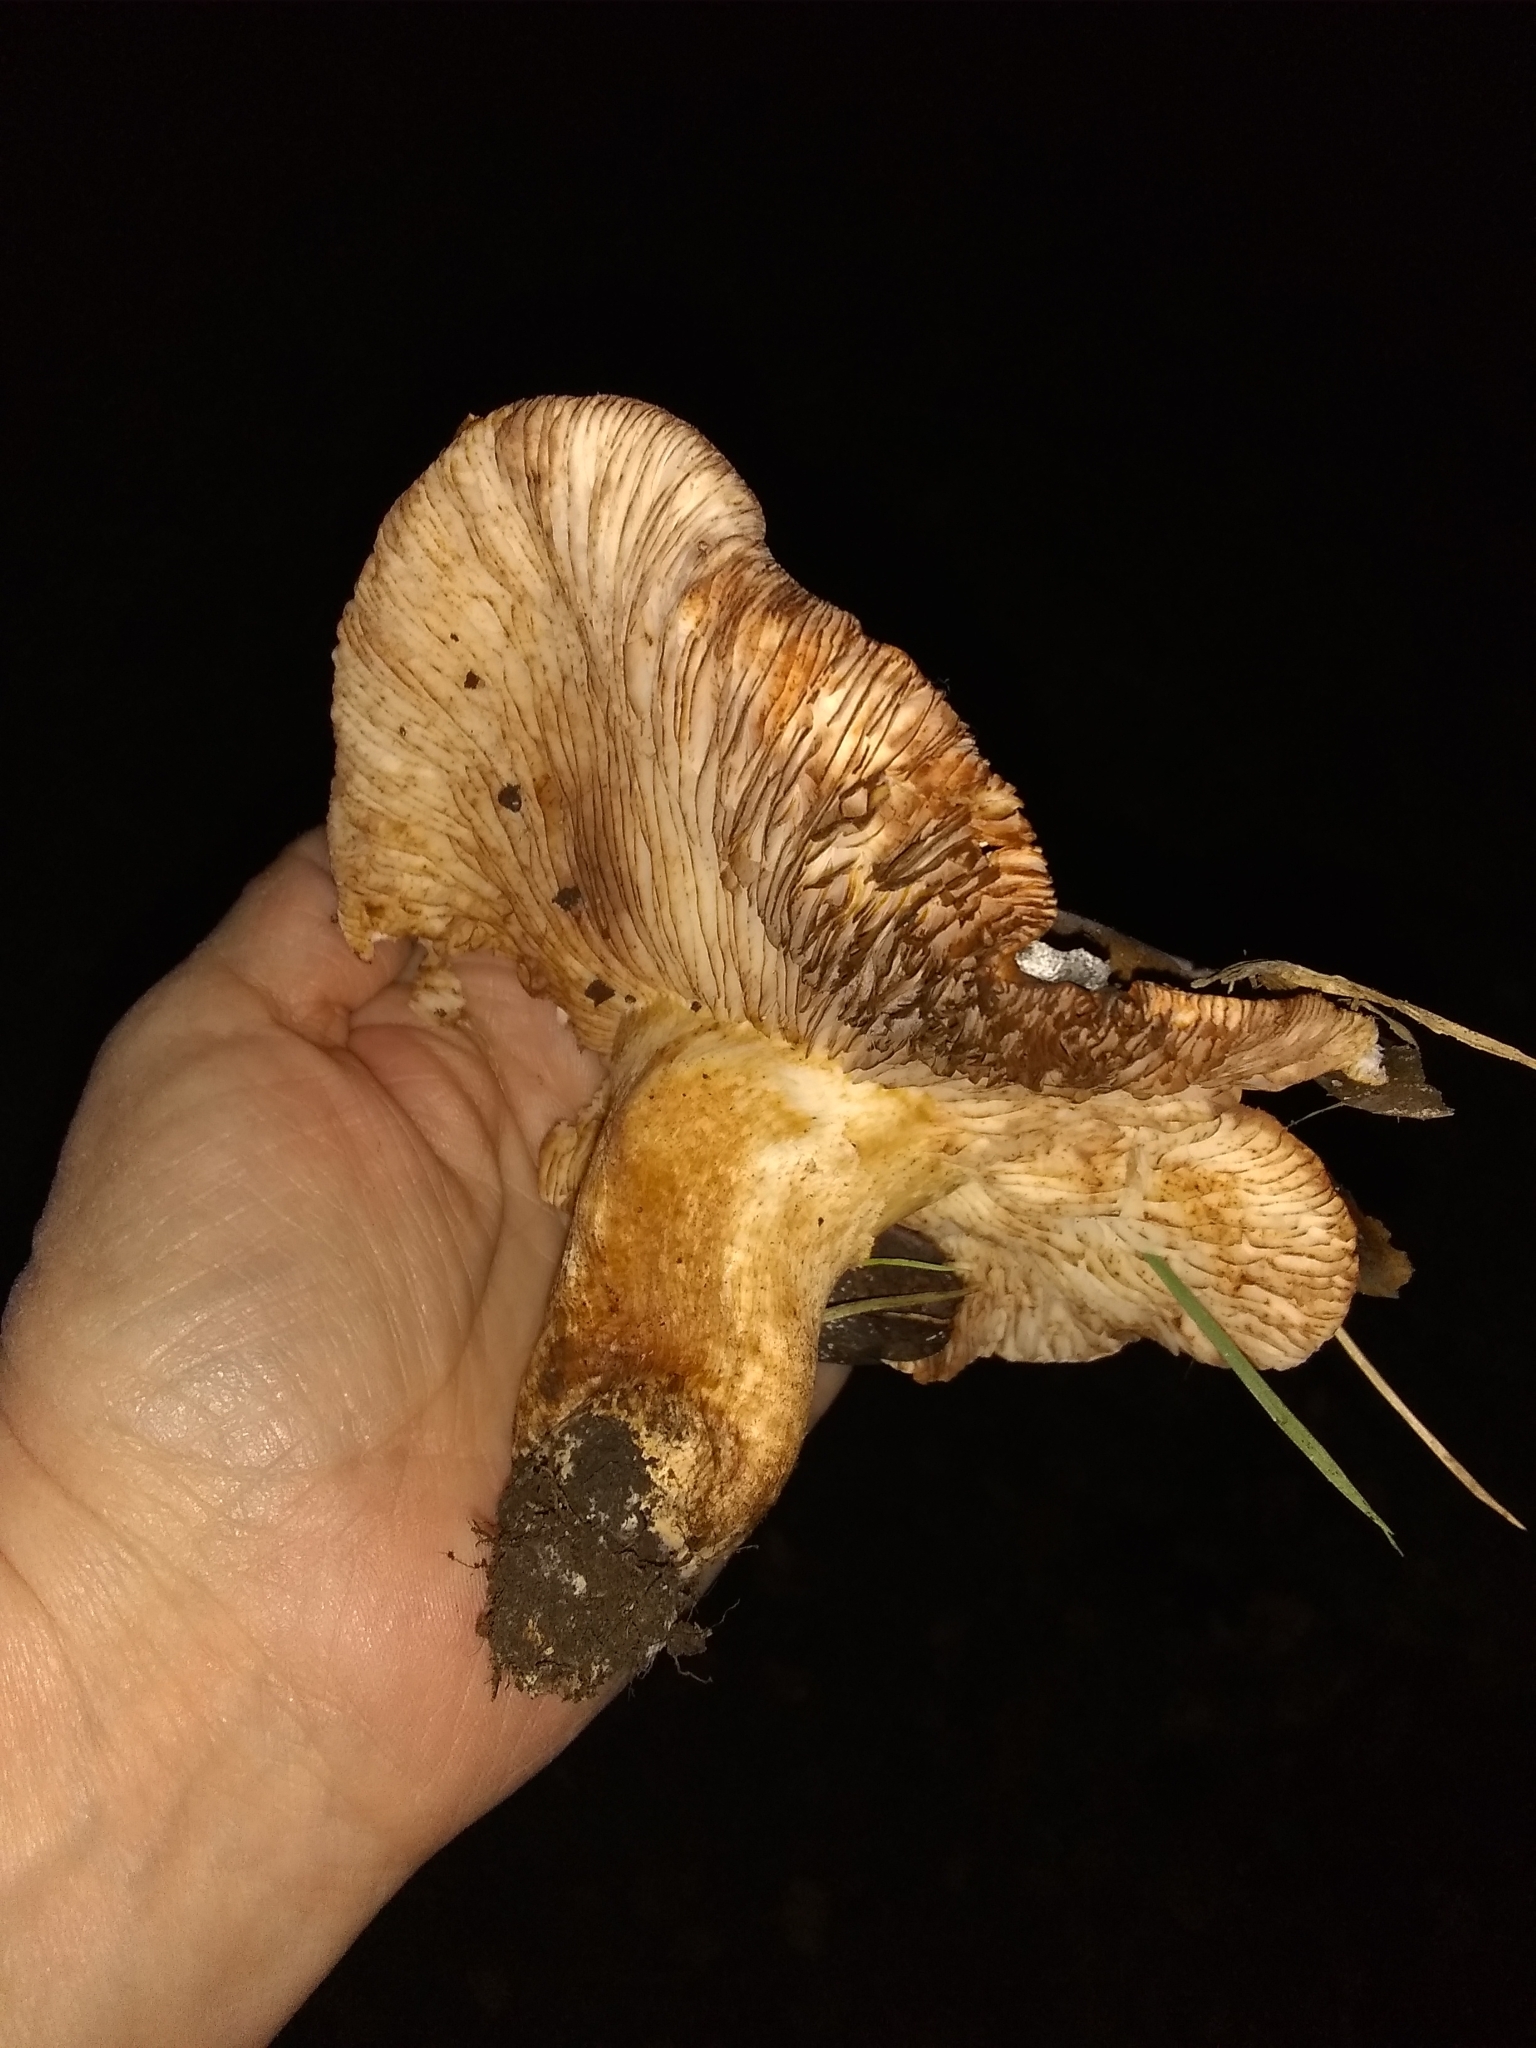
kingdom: Fungi
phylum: Basidiomycota
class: Agaricomycetes
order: Agaricales
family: Tricholomataceae
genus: Melanoleuca
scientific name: Melanoleuca dryophila
